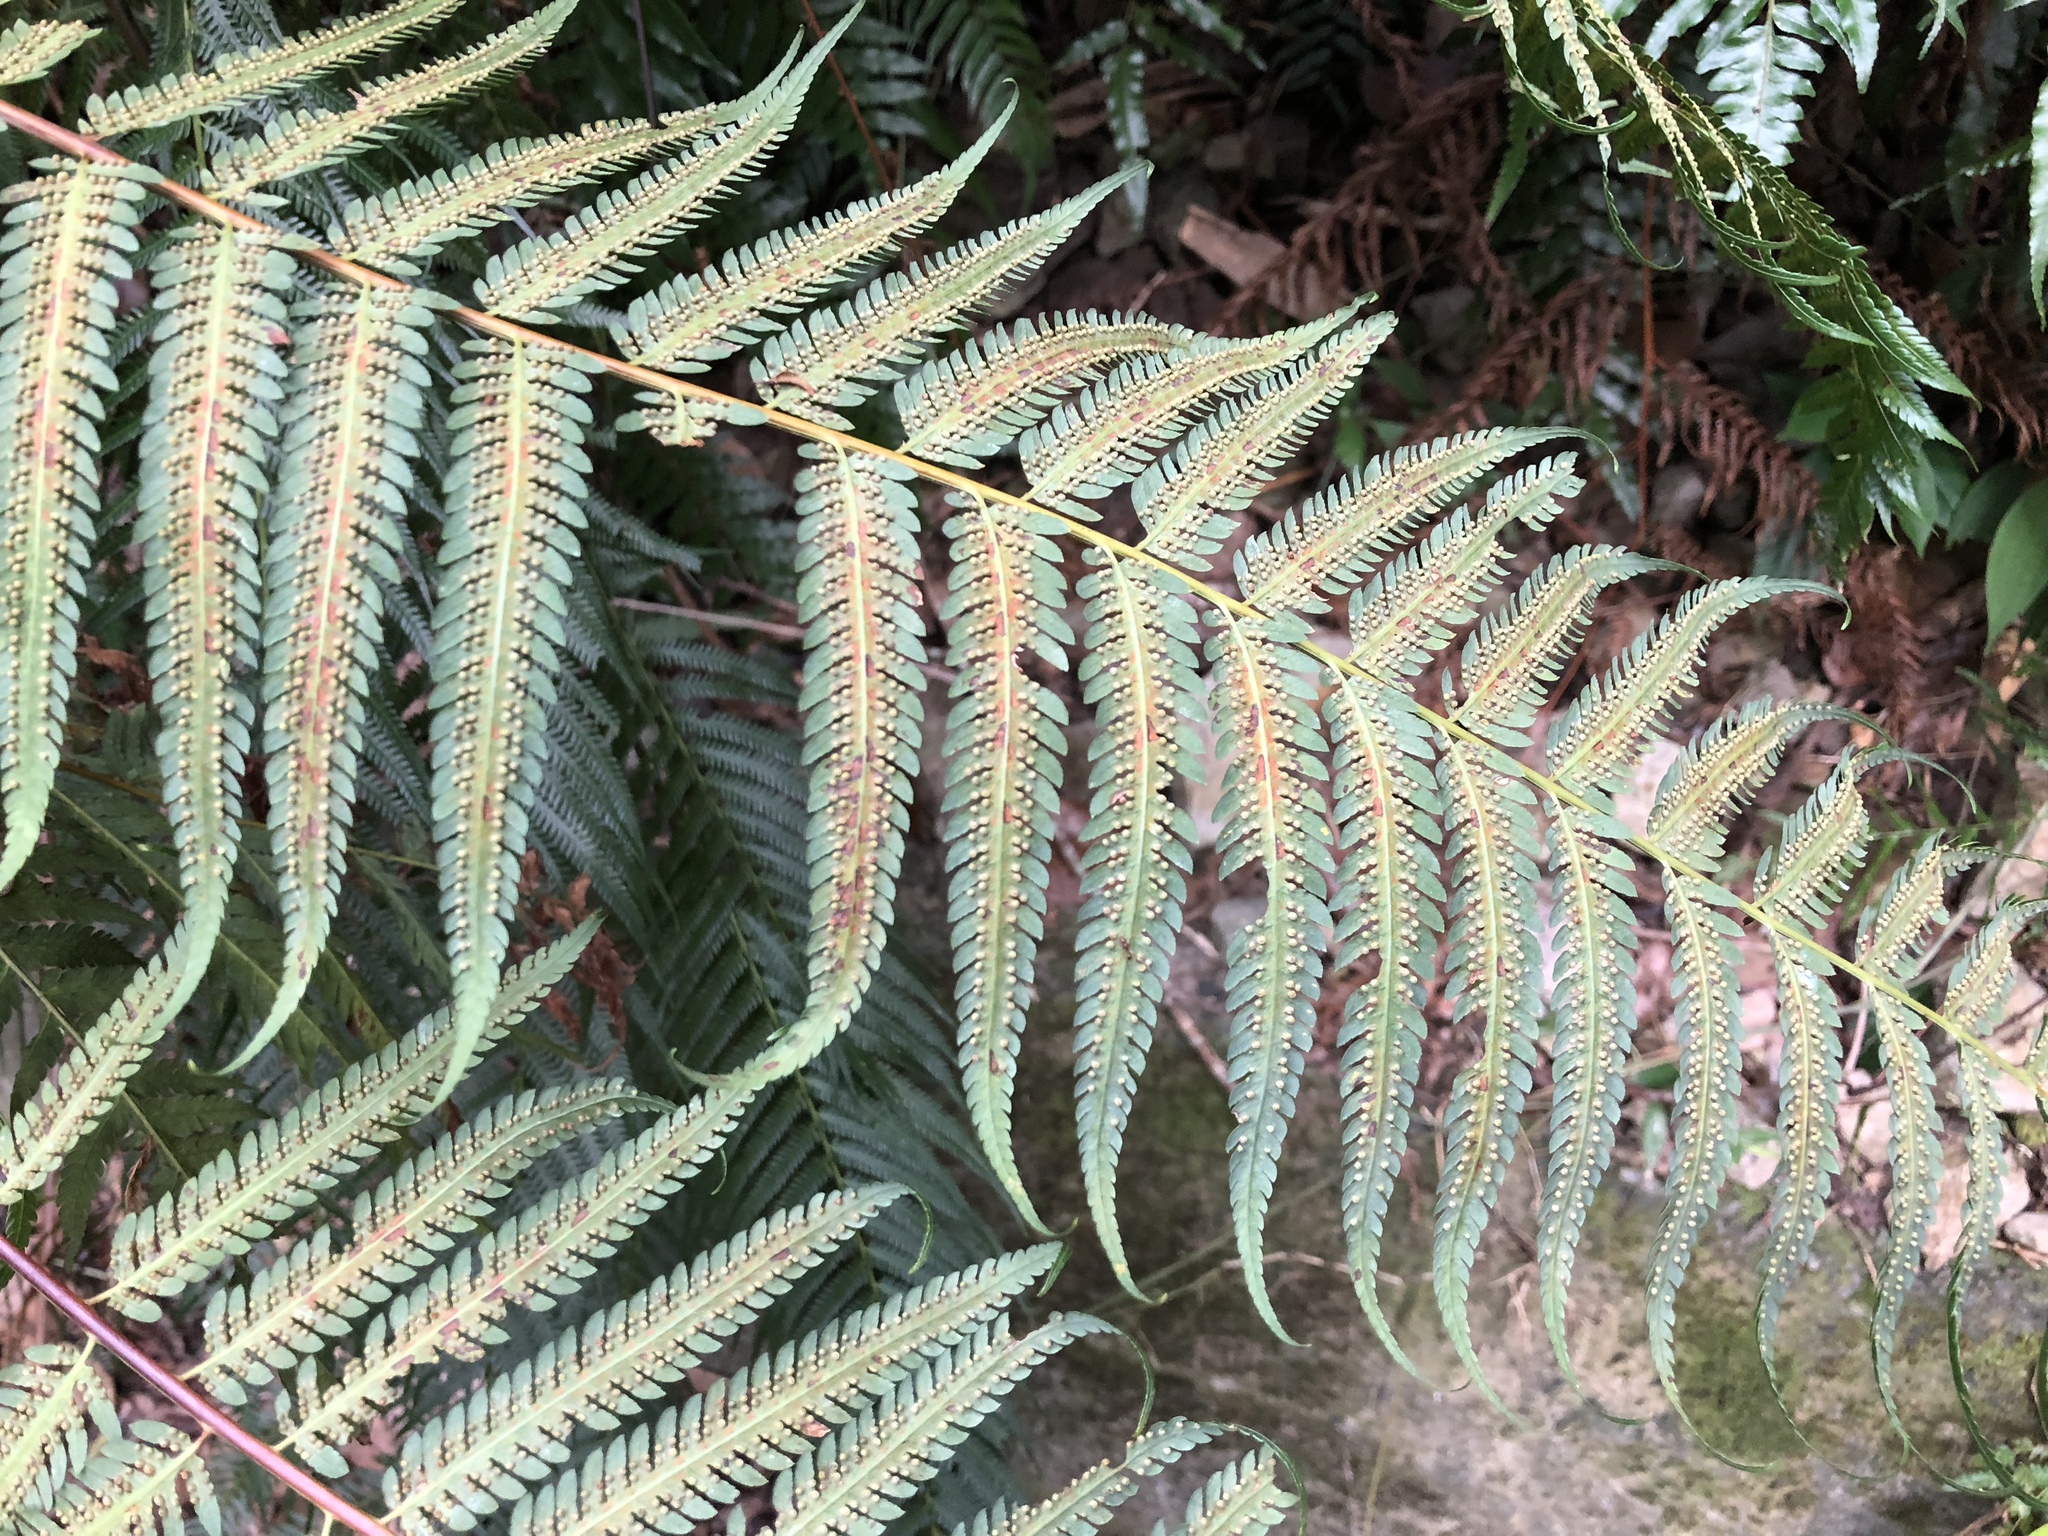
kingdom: Plantae
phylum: Tracheophyta
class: Polypodiopsida
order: Cyatheales
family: Cibotiaceae
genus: Cibotium
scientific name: Cibotium barometz
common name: Scythian-lamb
